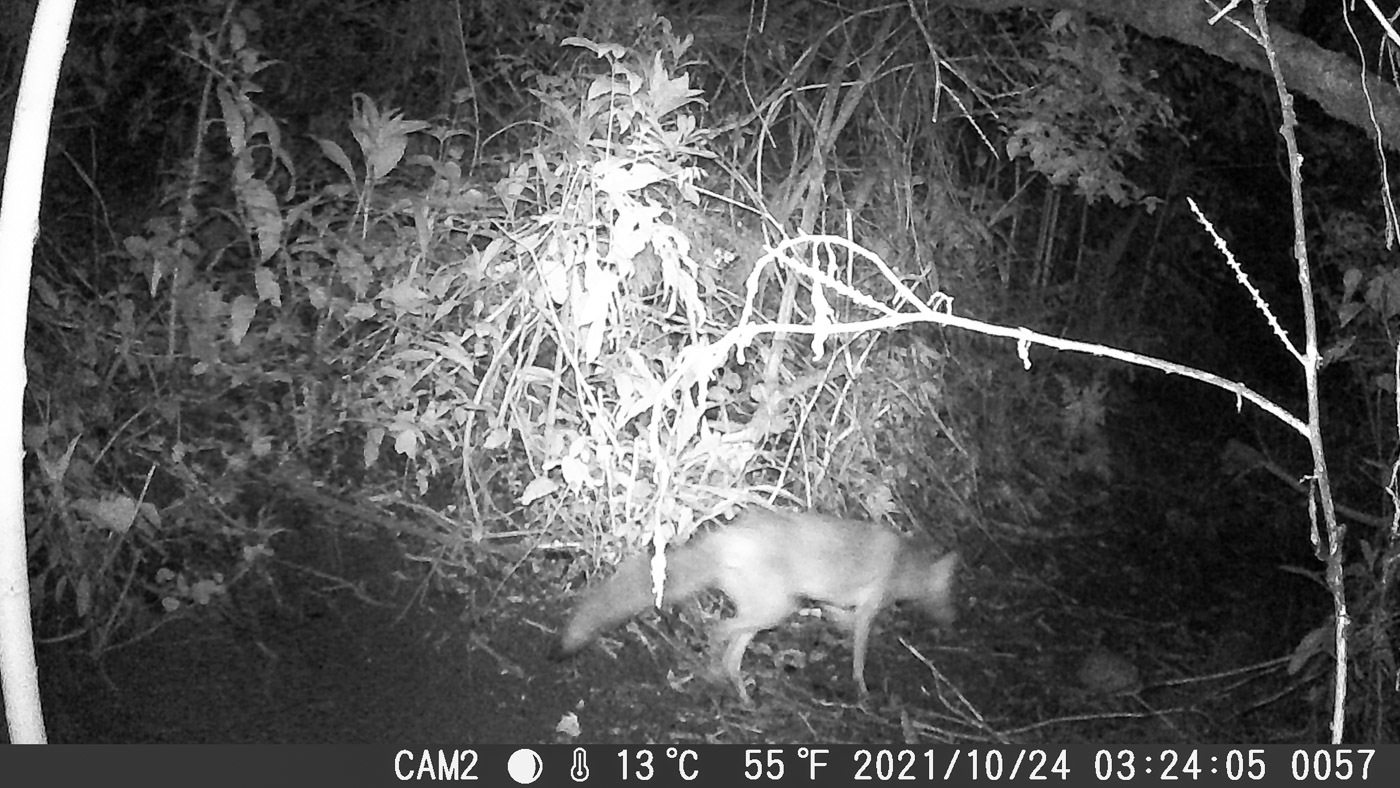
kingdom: Animalia
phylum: Chordata
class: Mammalia
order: Carnivora
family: Canidae
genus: Vulpes
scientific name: Vulpes vulpes
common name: Red fox
